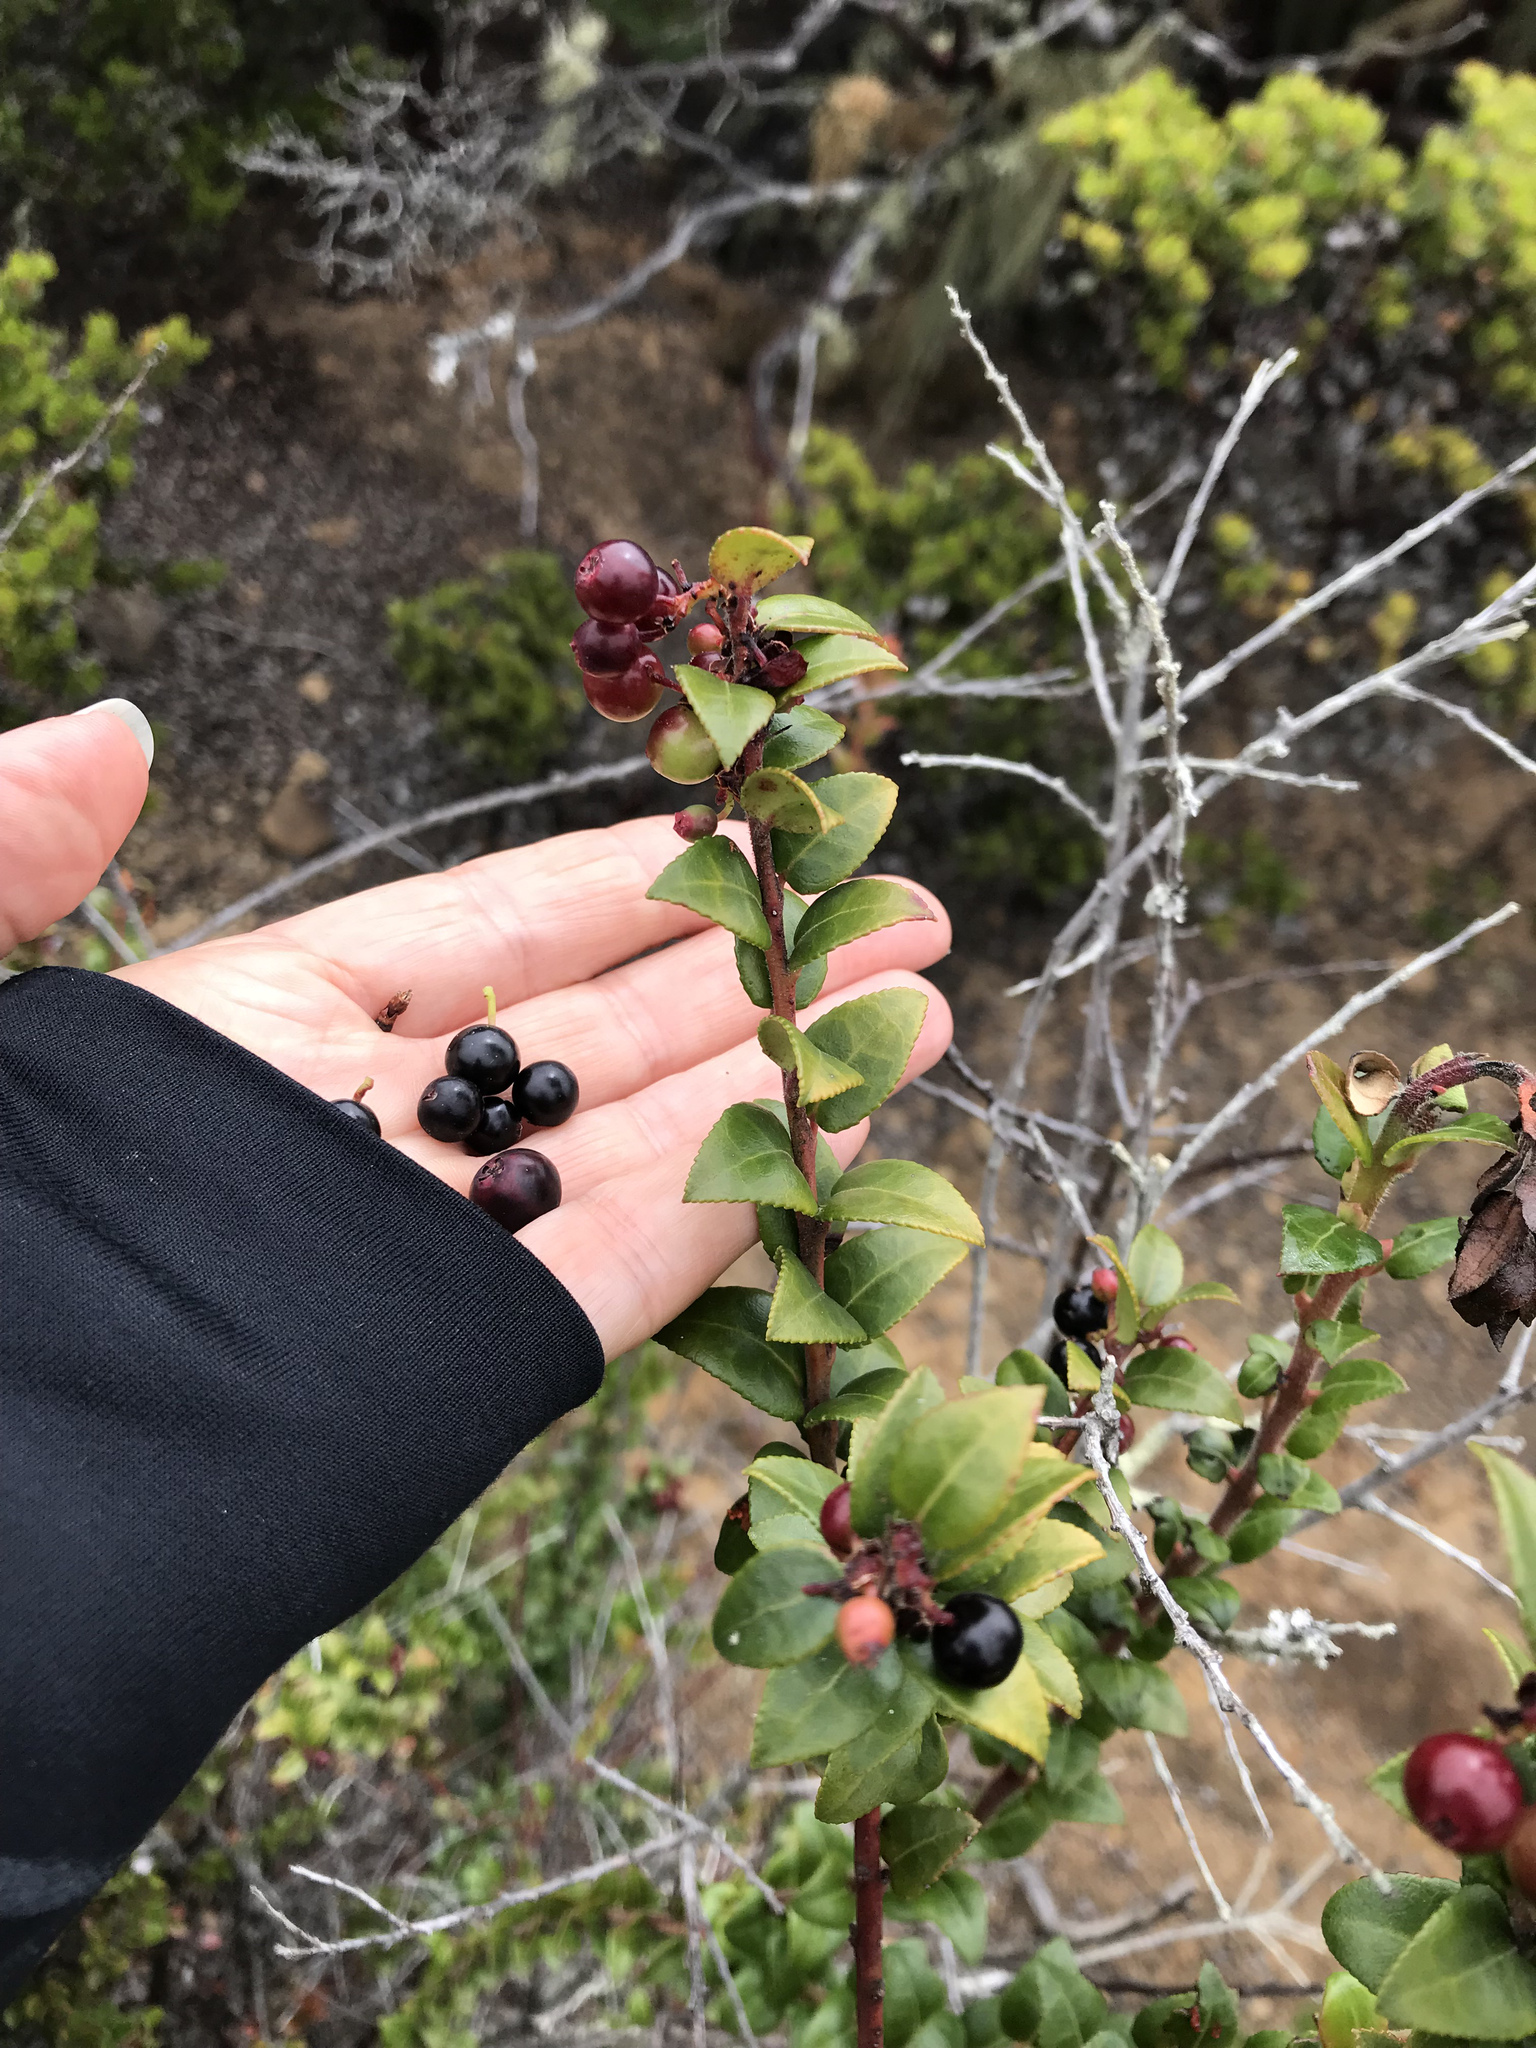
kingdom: Plantae
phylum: Tracheophyta
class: Magnoliopsida
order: Ericales
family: Ericaceae
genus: Vaccinium
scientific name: Vaccinium ovatum
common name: California-huckleberry
